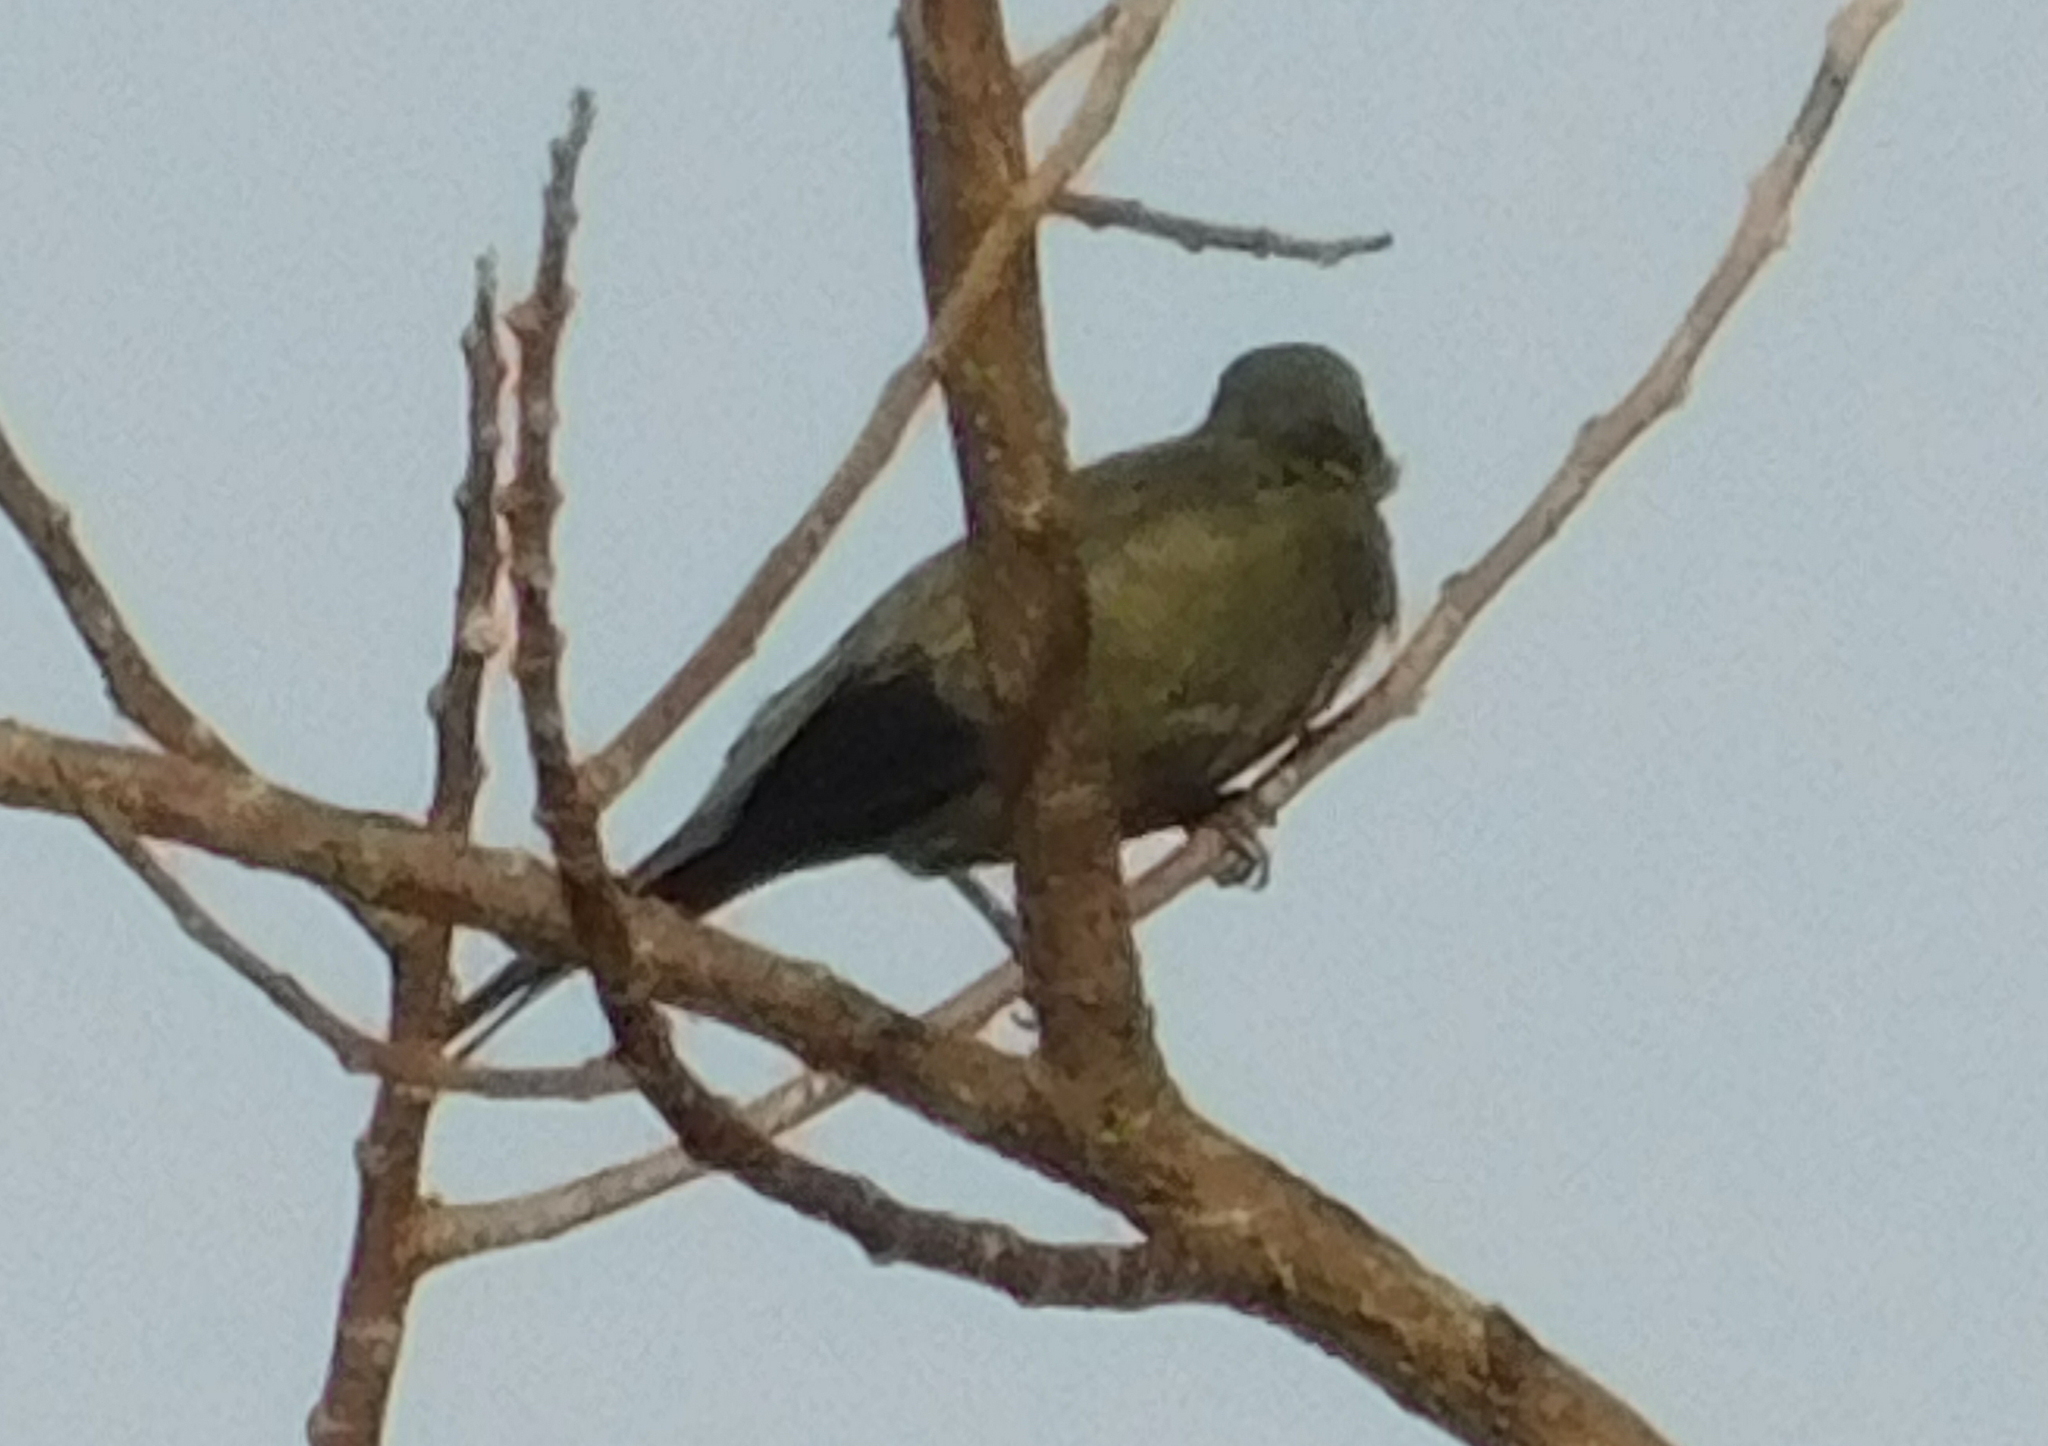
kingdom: Animalia
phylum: Chordata
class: Aves
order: Passeriformes
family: Thraupidae
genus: Thraupis
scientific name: Thraupis palmarum
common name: Palm tanager
